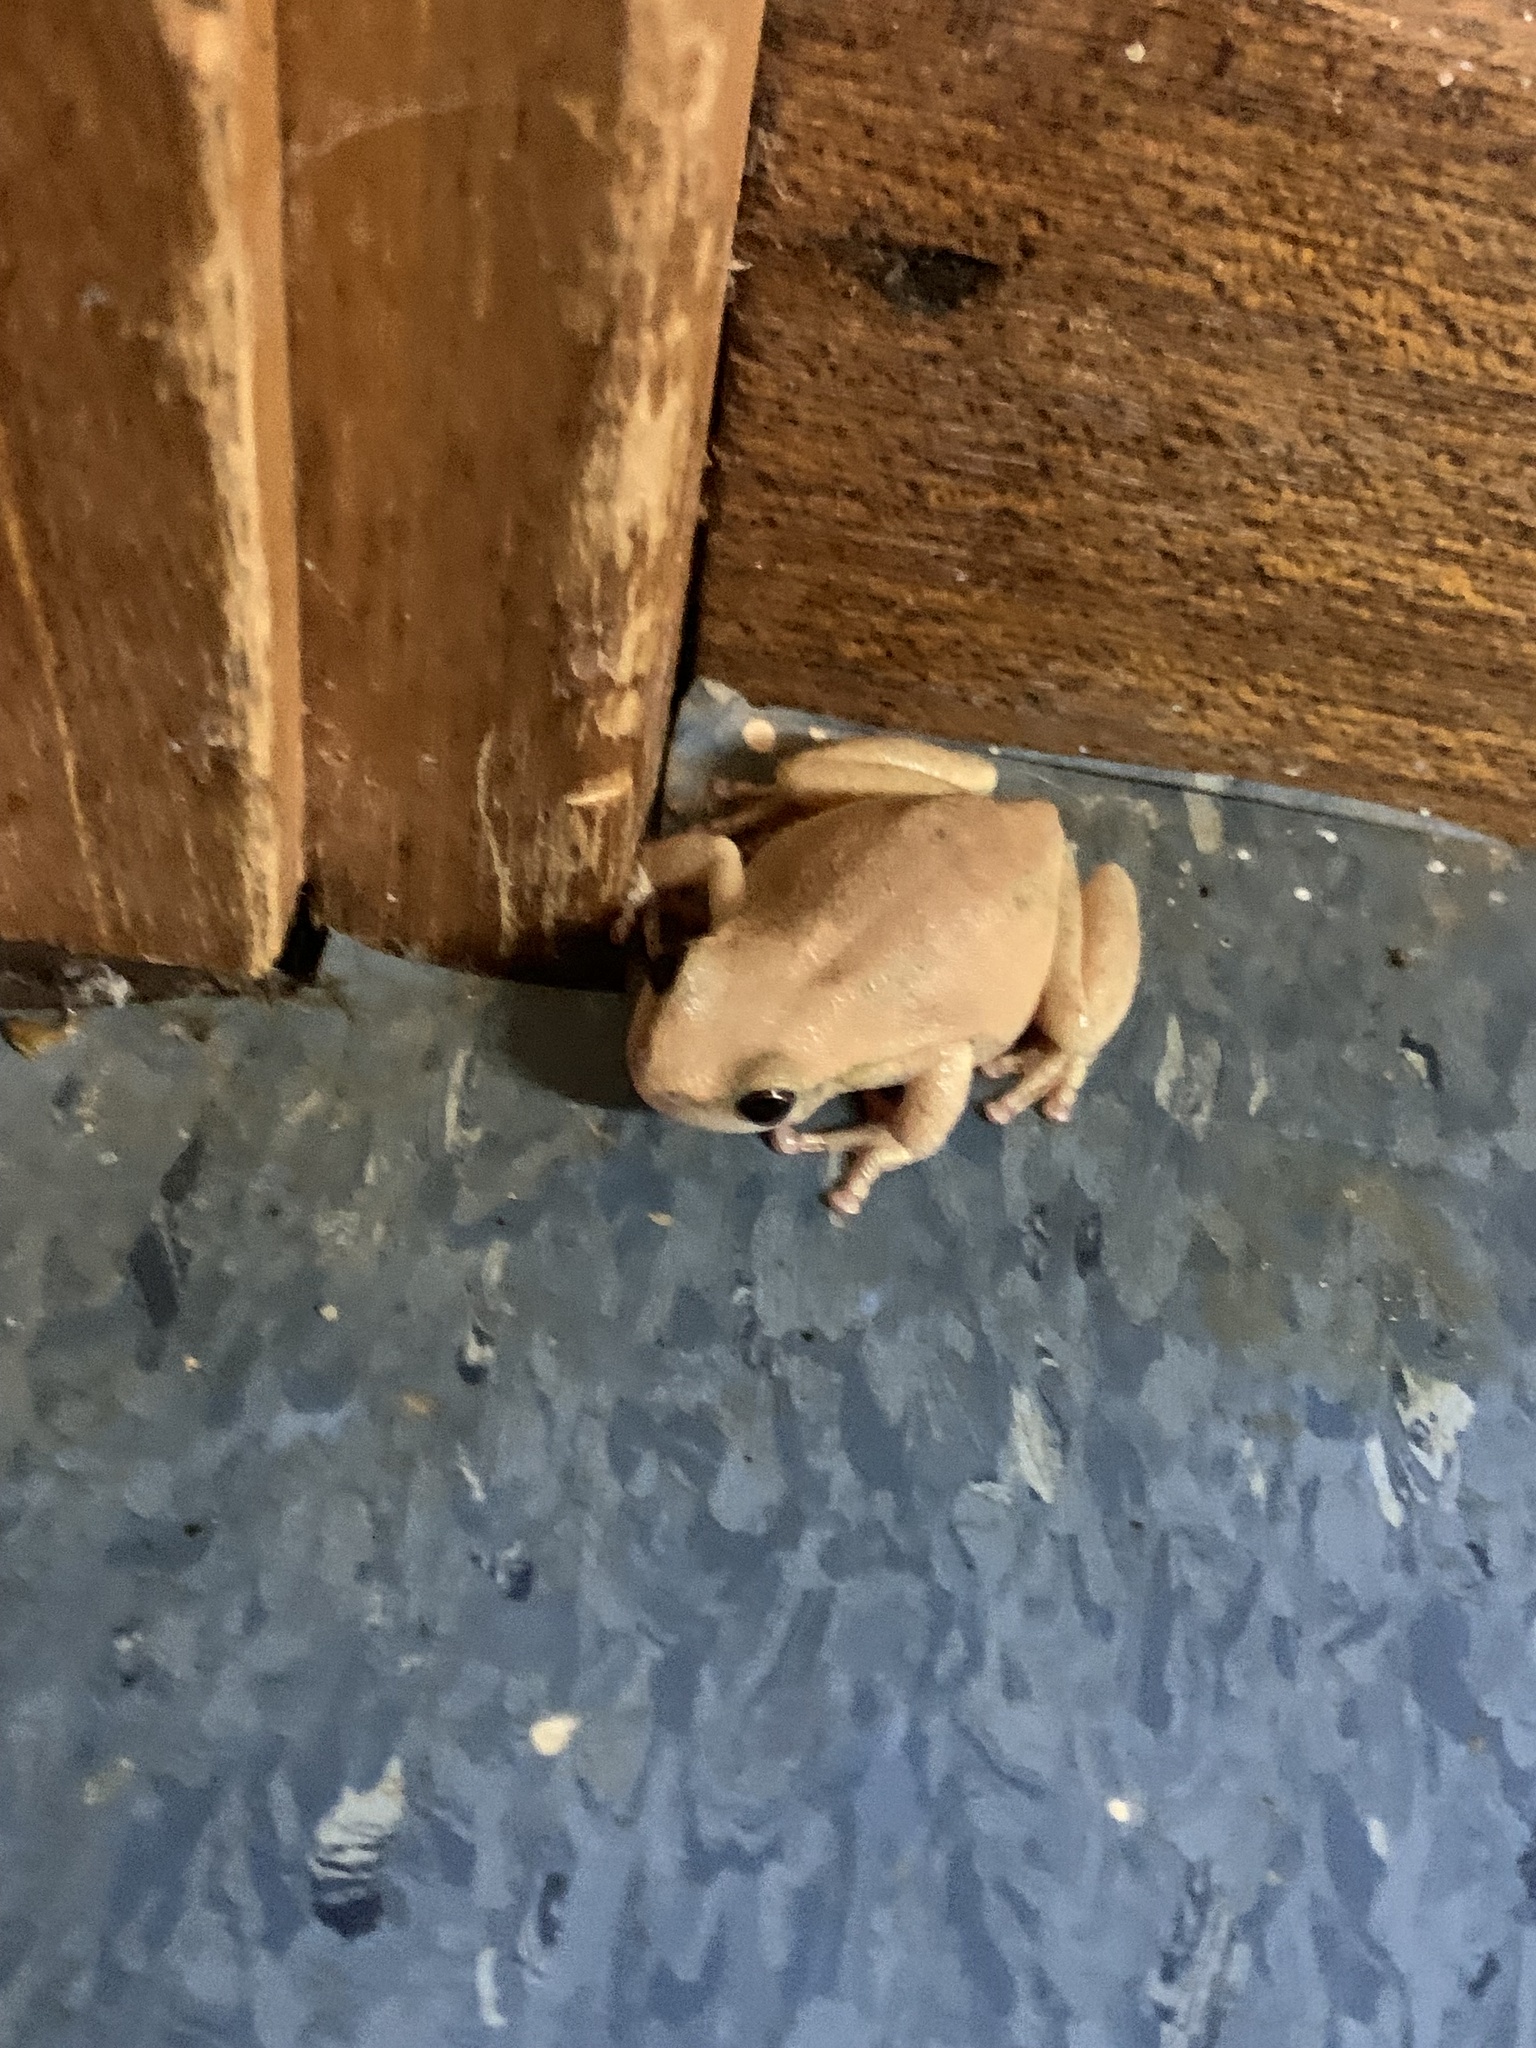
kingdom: Animalia
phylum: Chordata
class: Amphibia
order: Anura
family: Pelodryadidae
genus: Litoria
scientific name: Litoria rubella
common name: Desert tree frog
